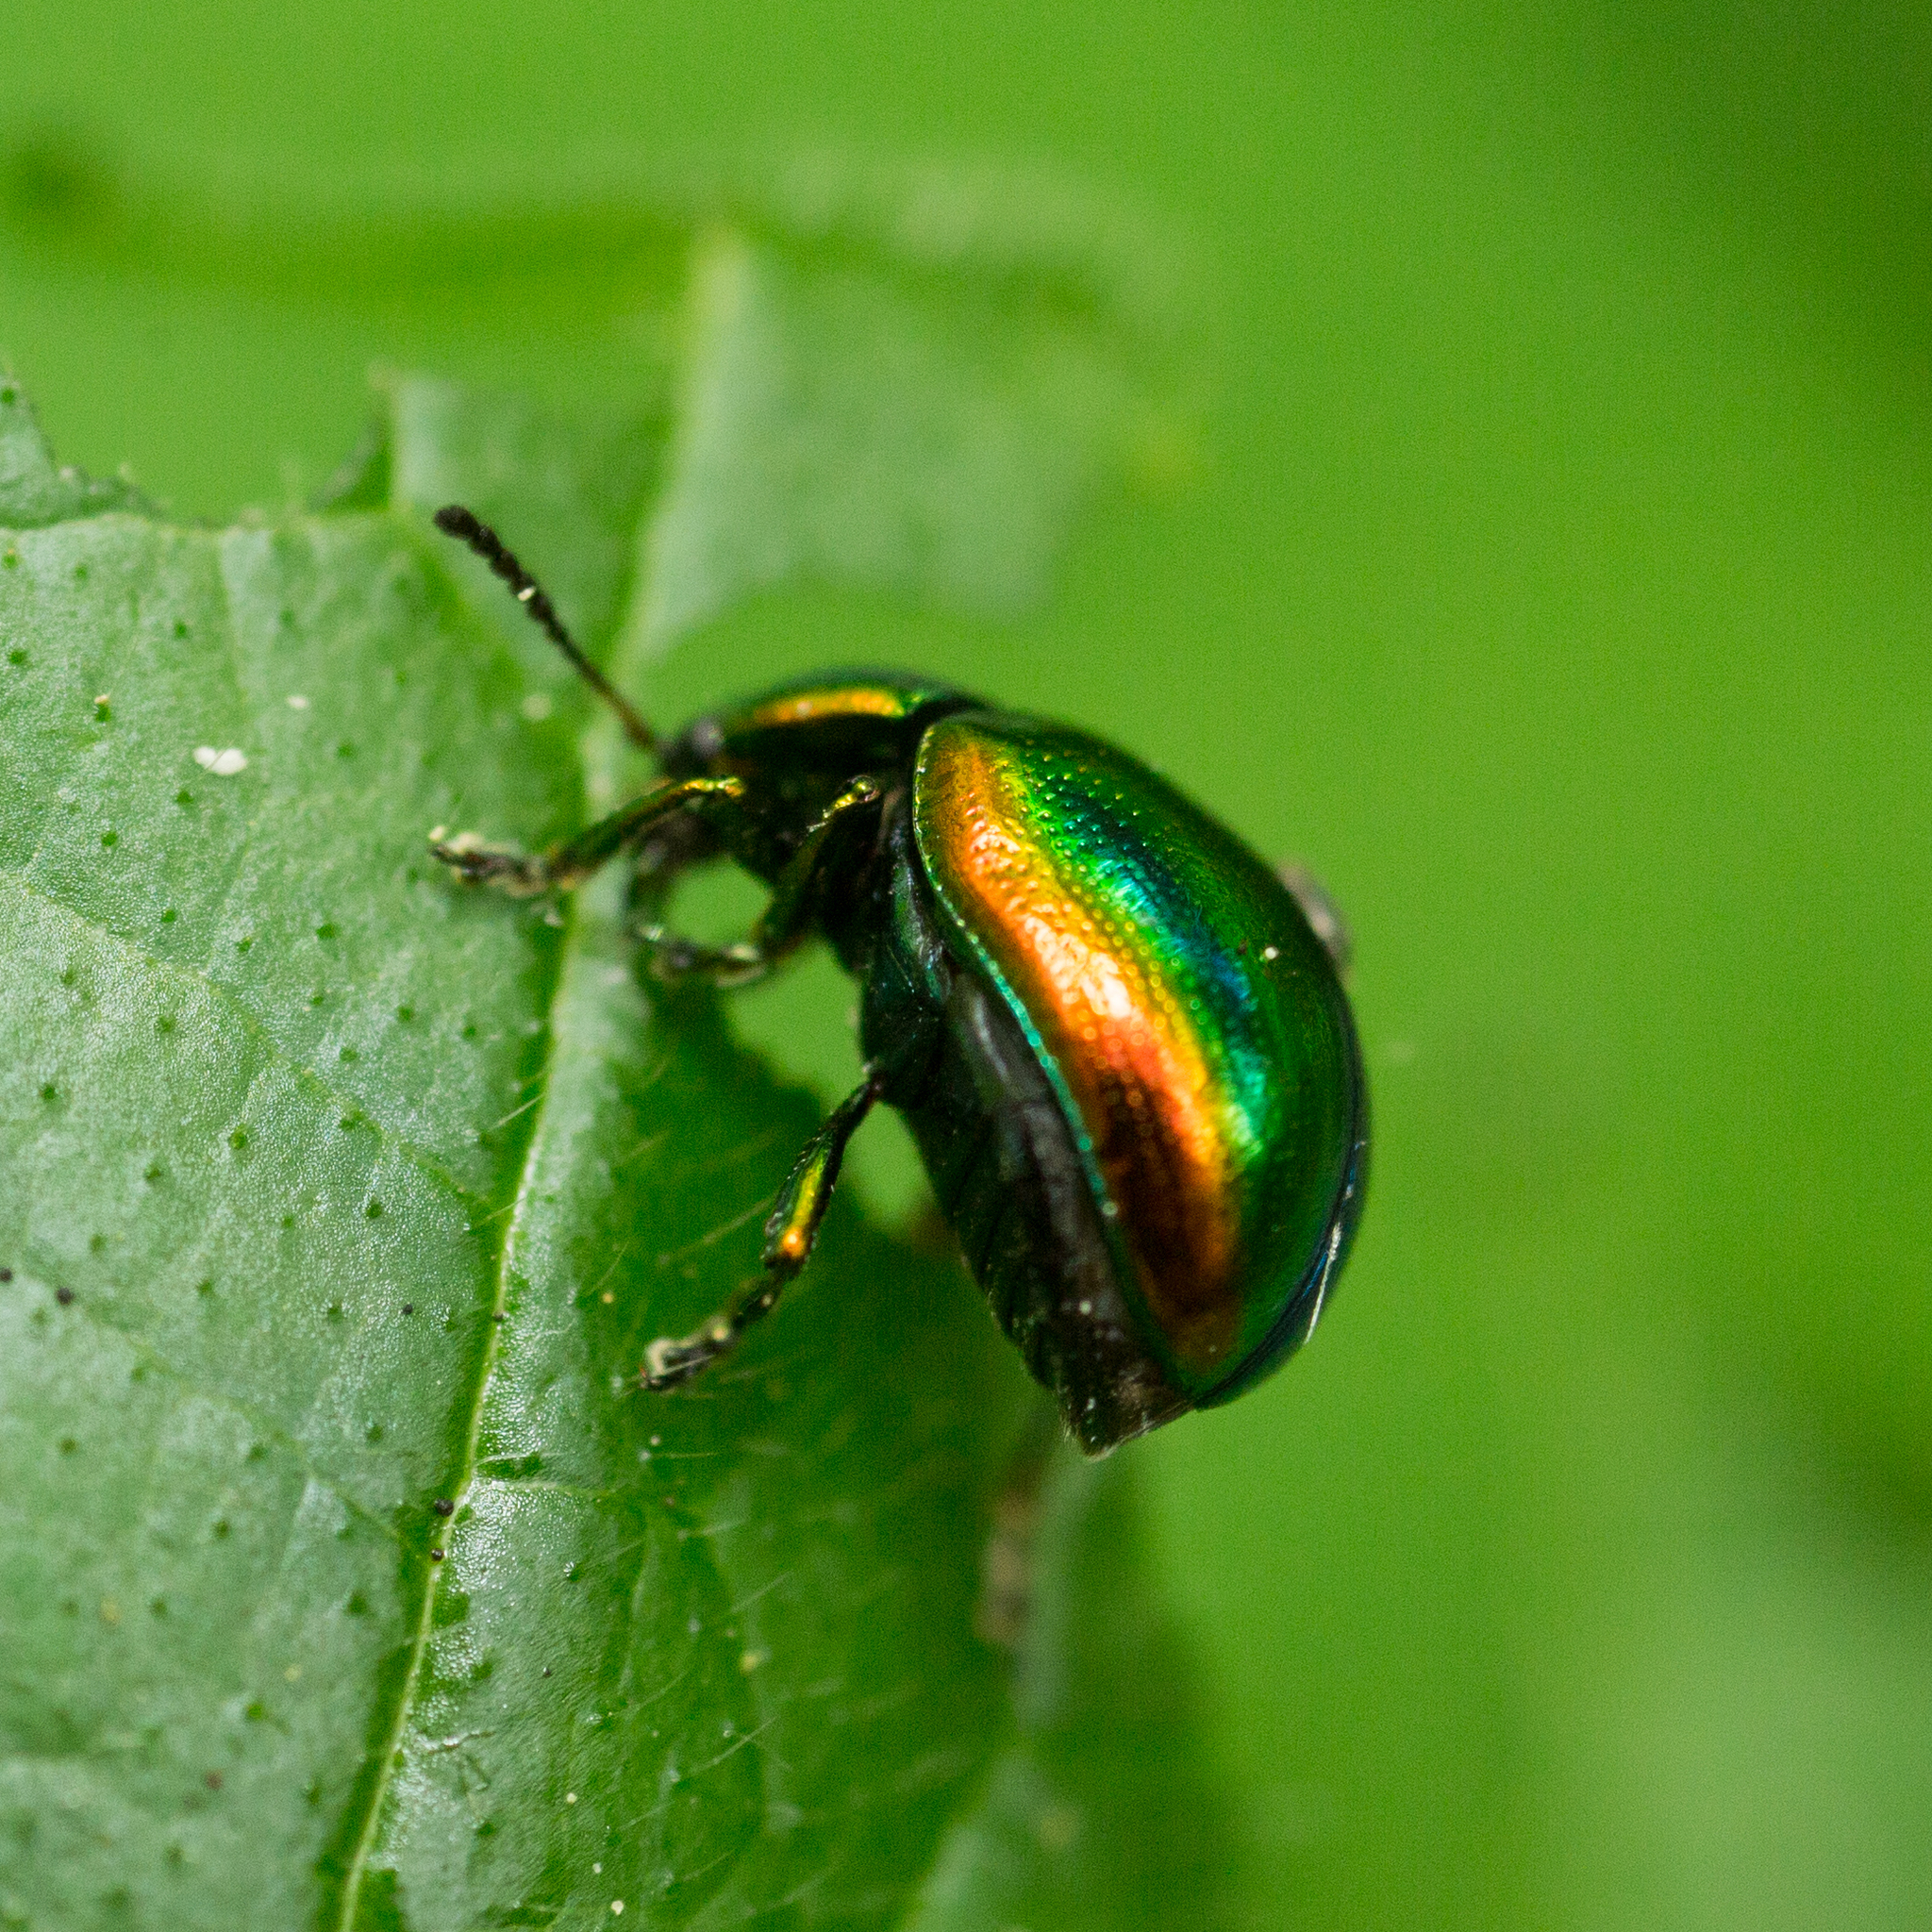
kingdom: Animalia
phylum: Arthropoda
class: Insecta
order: Coleoptera
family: Chrysomelidae
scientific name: Chrysomelidae
